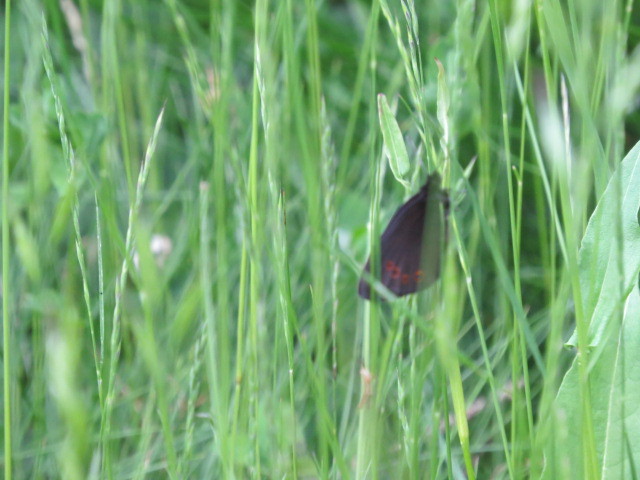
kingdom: Animalia
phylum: Arthropoda
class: Insecta
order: Lepidoptera
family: Nymphalidae
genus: Erebia
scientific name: Erebia medusa
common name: Woodland ringlet
